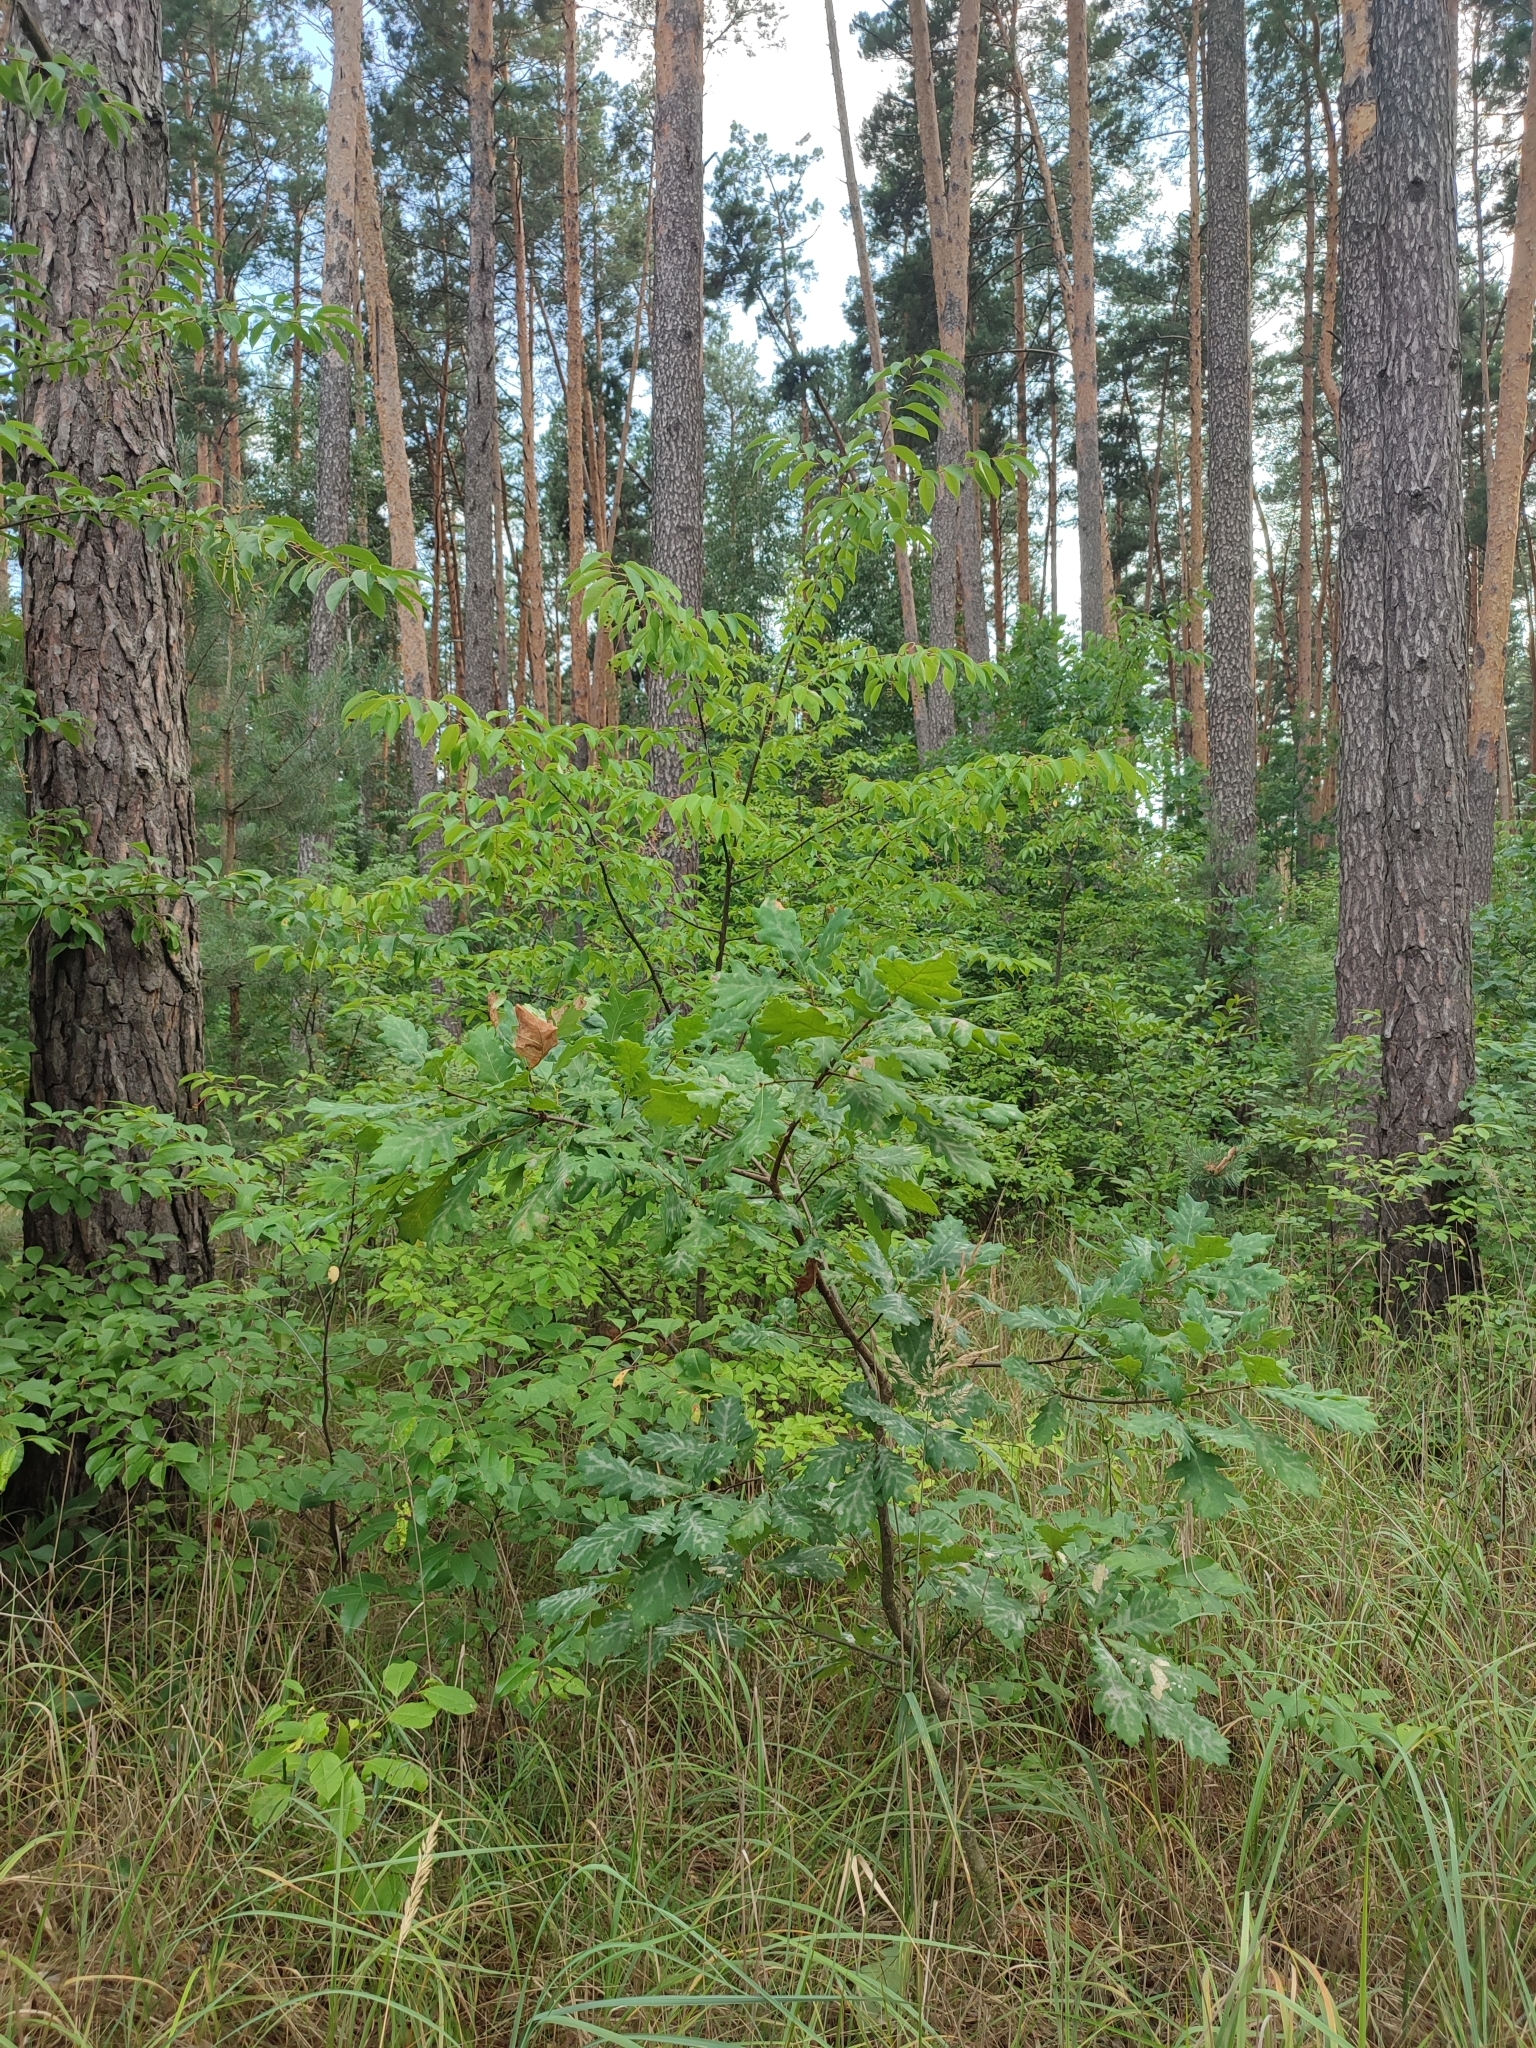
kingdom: Plantae
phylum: Tracheophyta
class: Magnoliopsida
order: Fagales
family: Fagaceae
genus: Quercus
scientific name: Quercus robur
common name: Pedunculate oak
